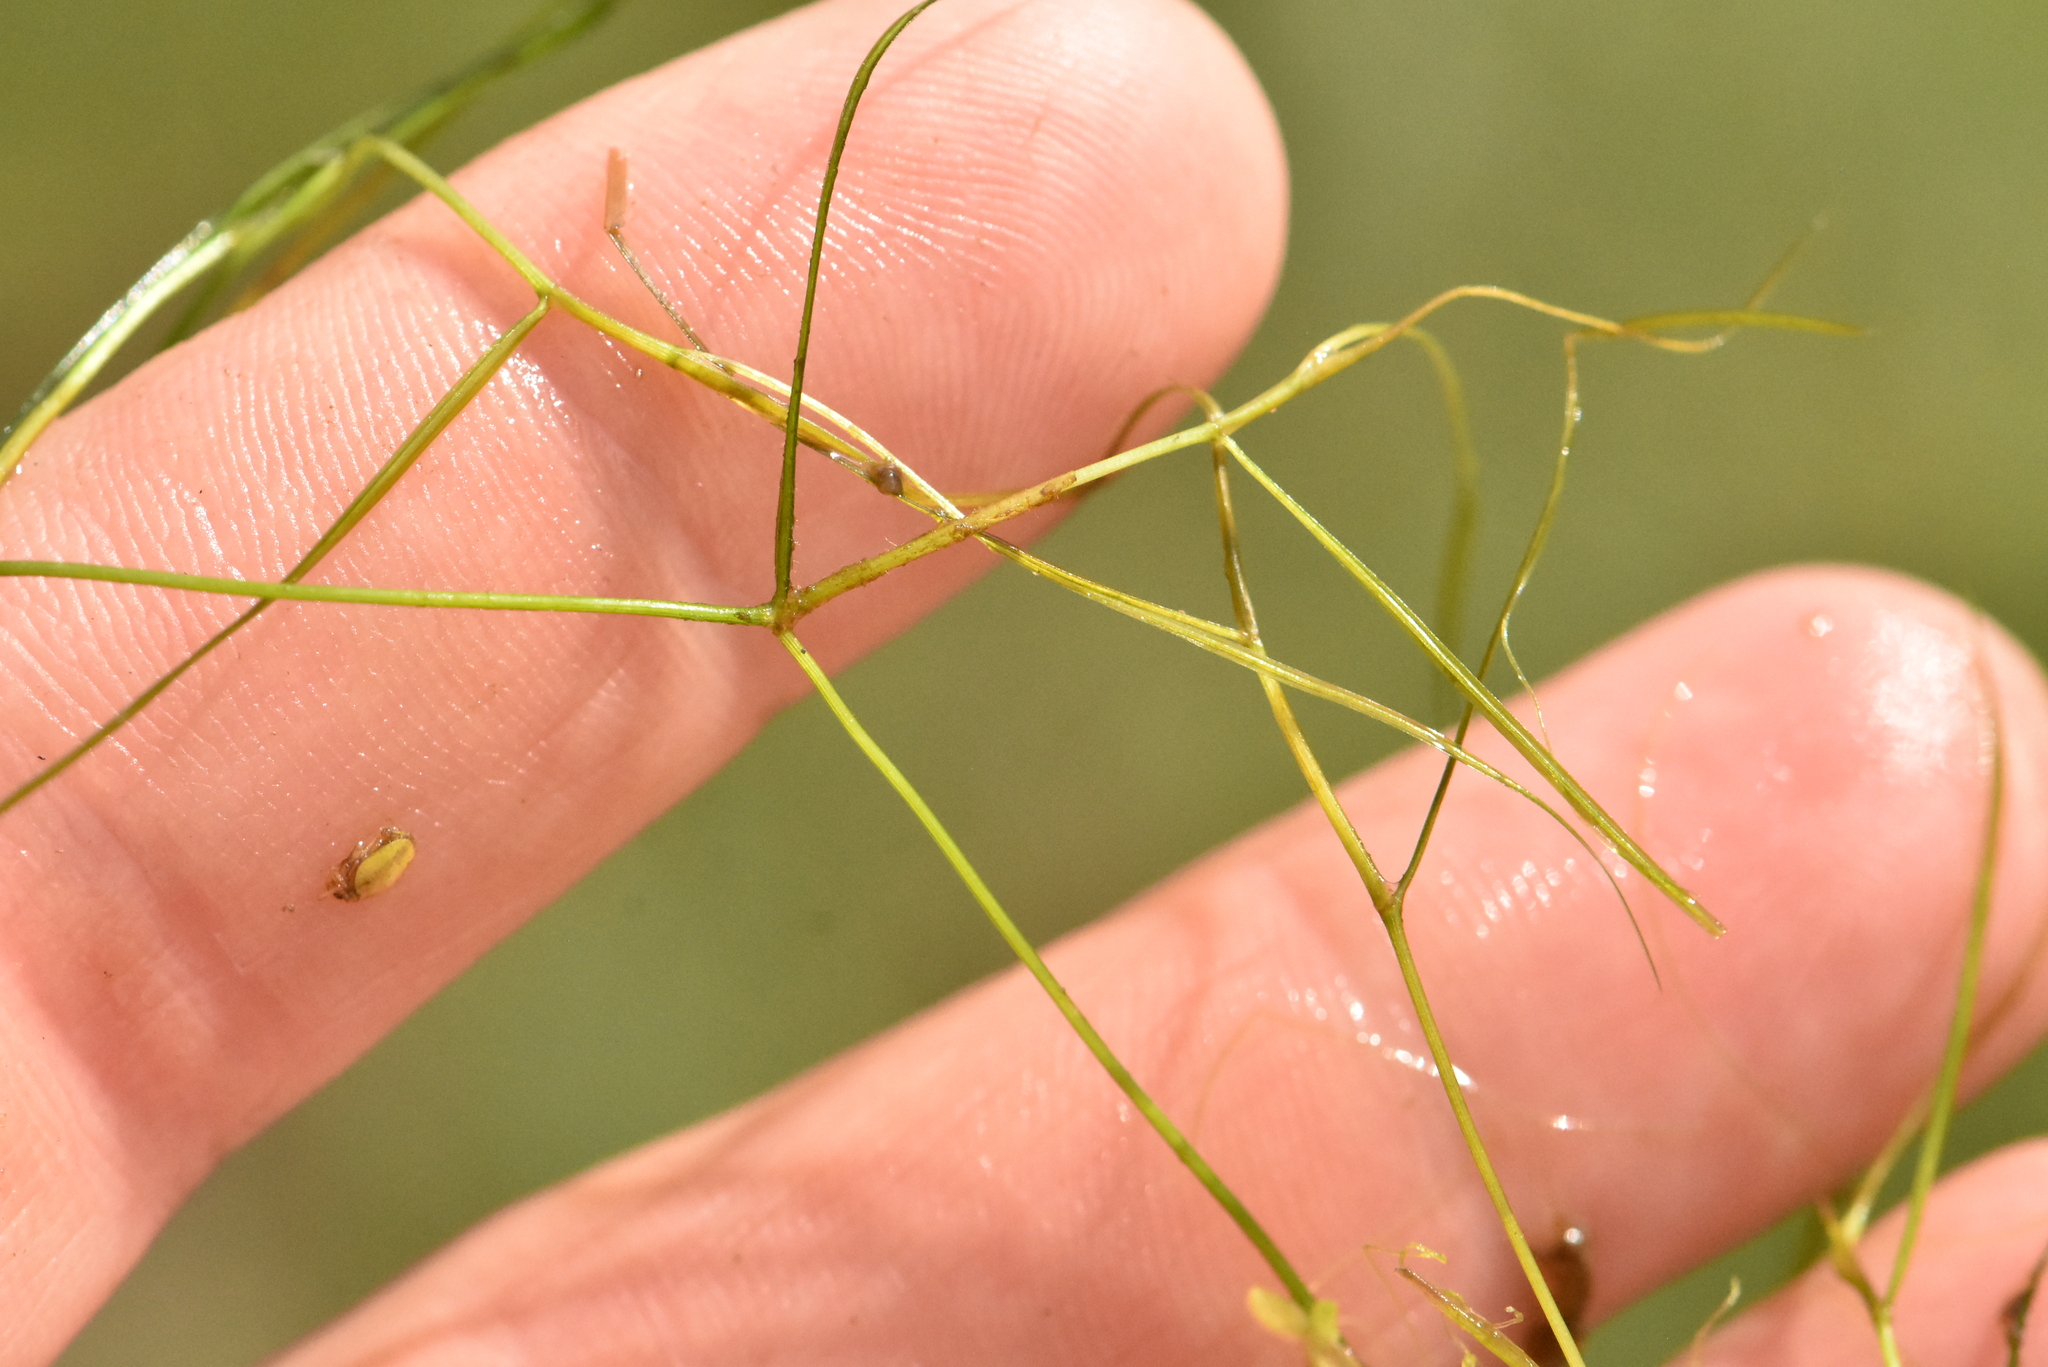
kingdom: Plantae
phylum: Tracheophyta
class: Liliopsida
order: Alismatales
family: Potamogetonaceae
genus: Potamogeton
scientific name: Potamogeton trichoides
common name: Hairlike pondweed
